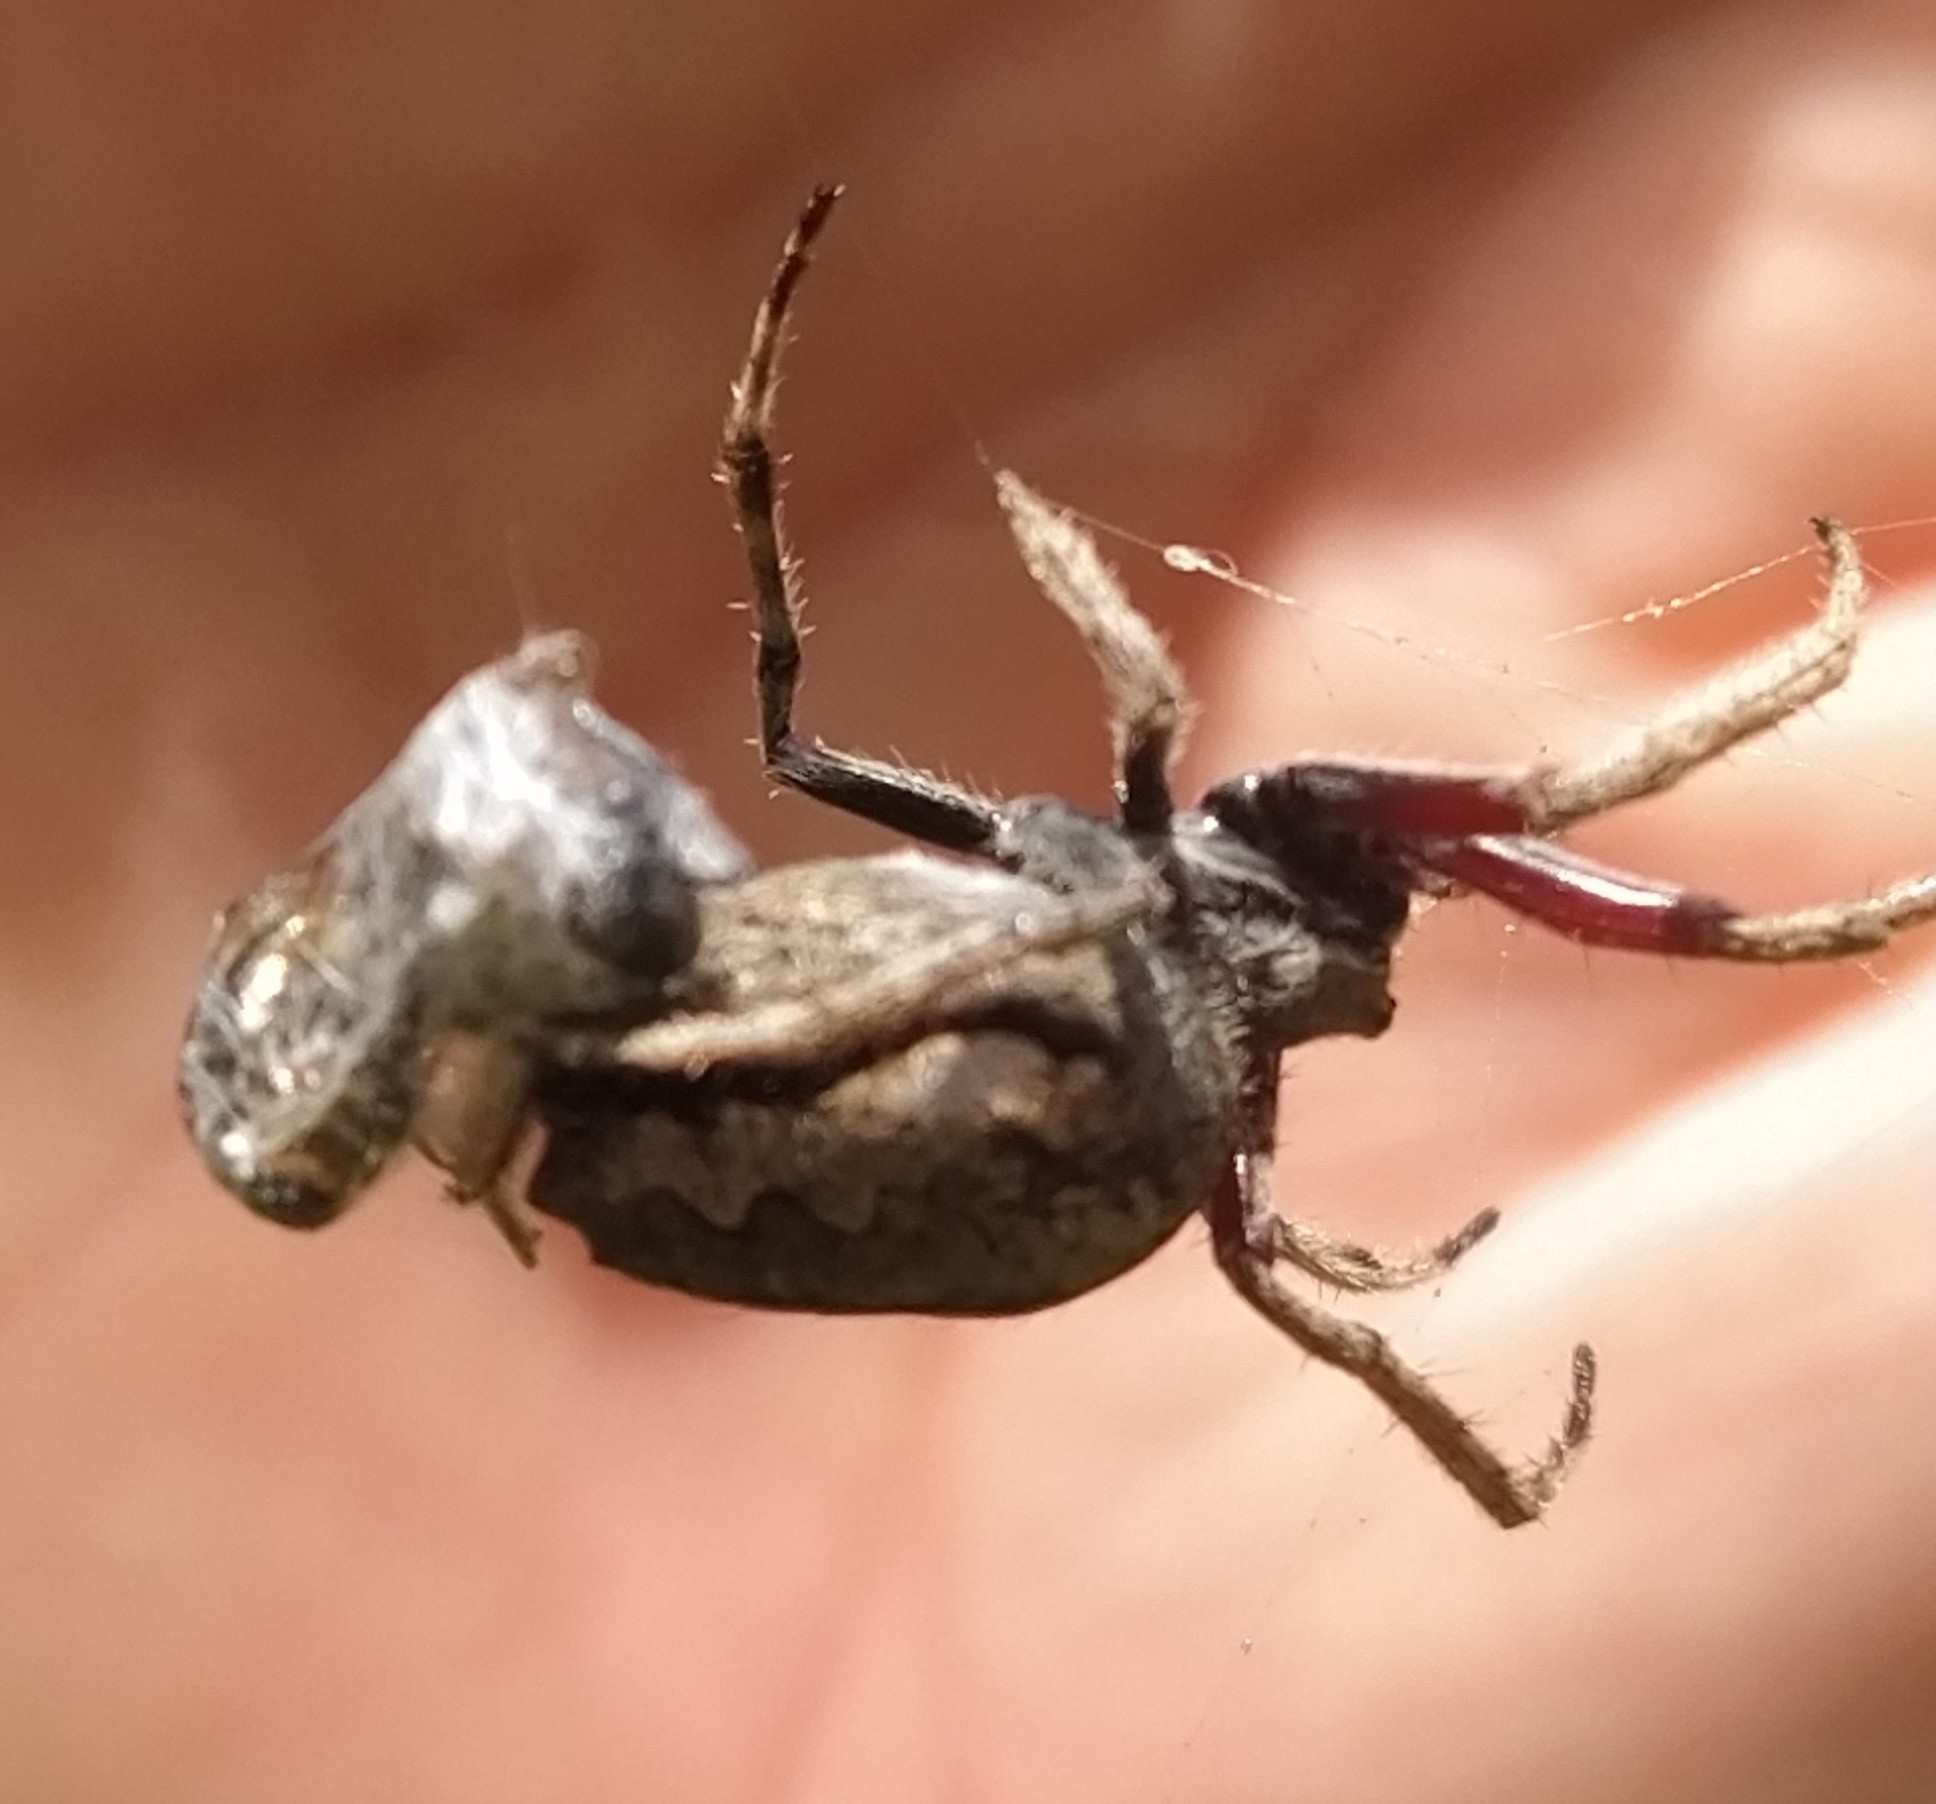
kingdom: Animalia
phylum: Arthropoda
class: Arachnida
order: Araneae
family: Araneidae
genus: Eriophora
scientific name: Eriophora pustulosa
